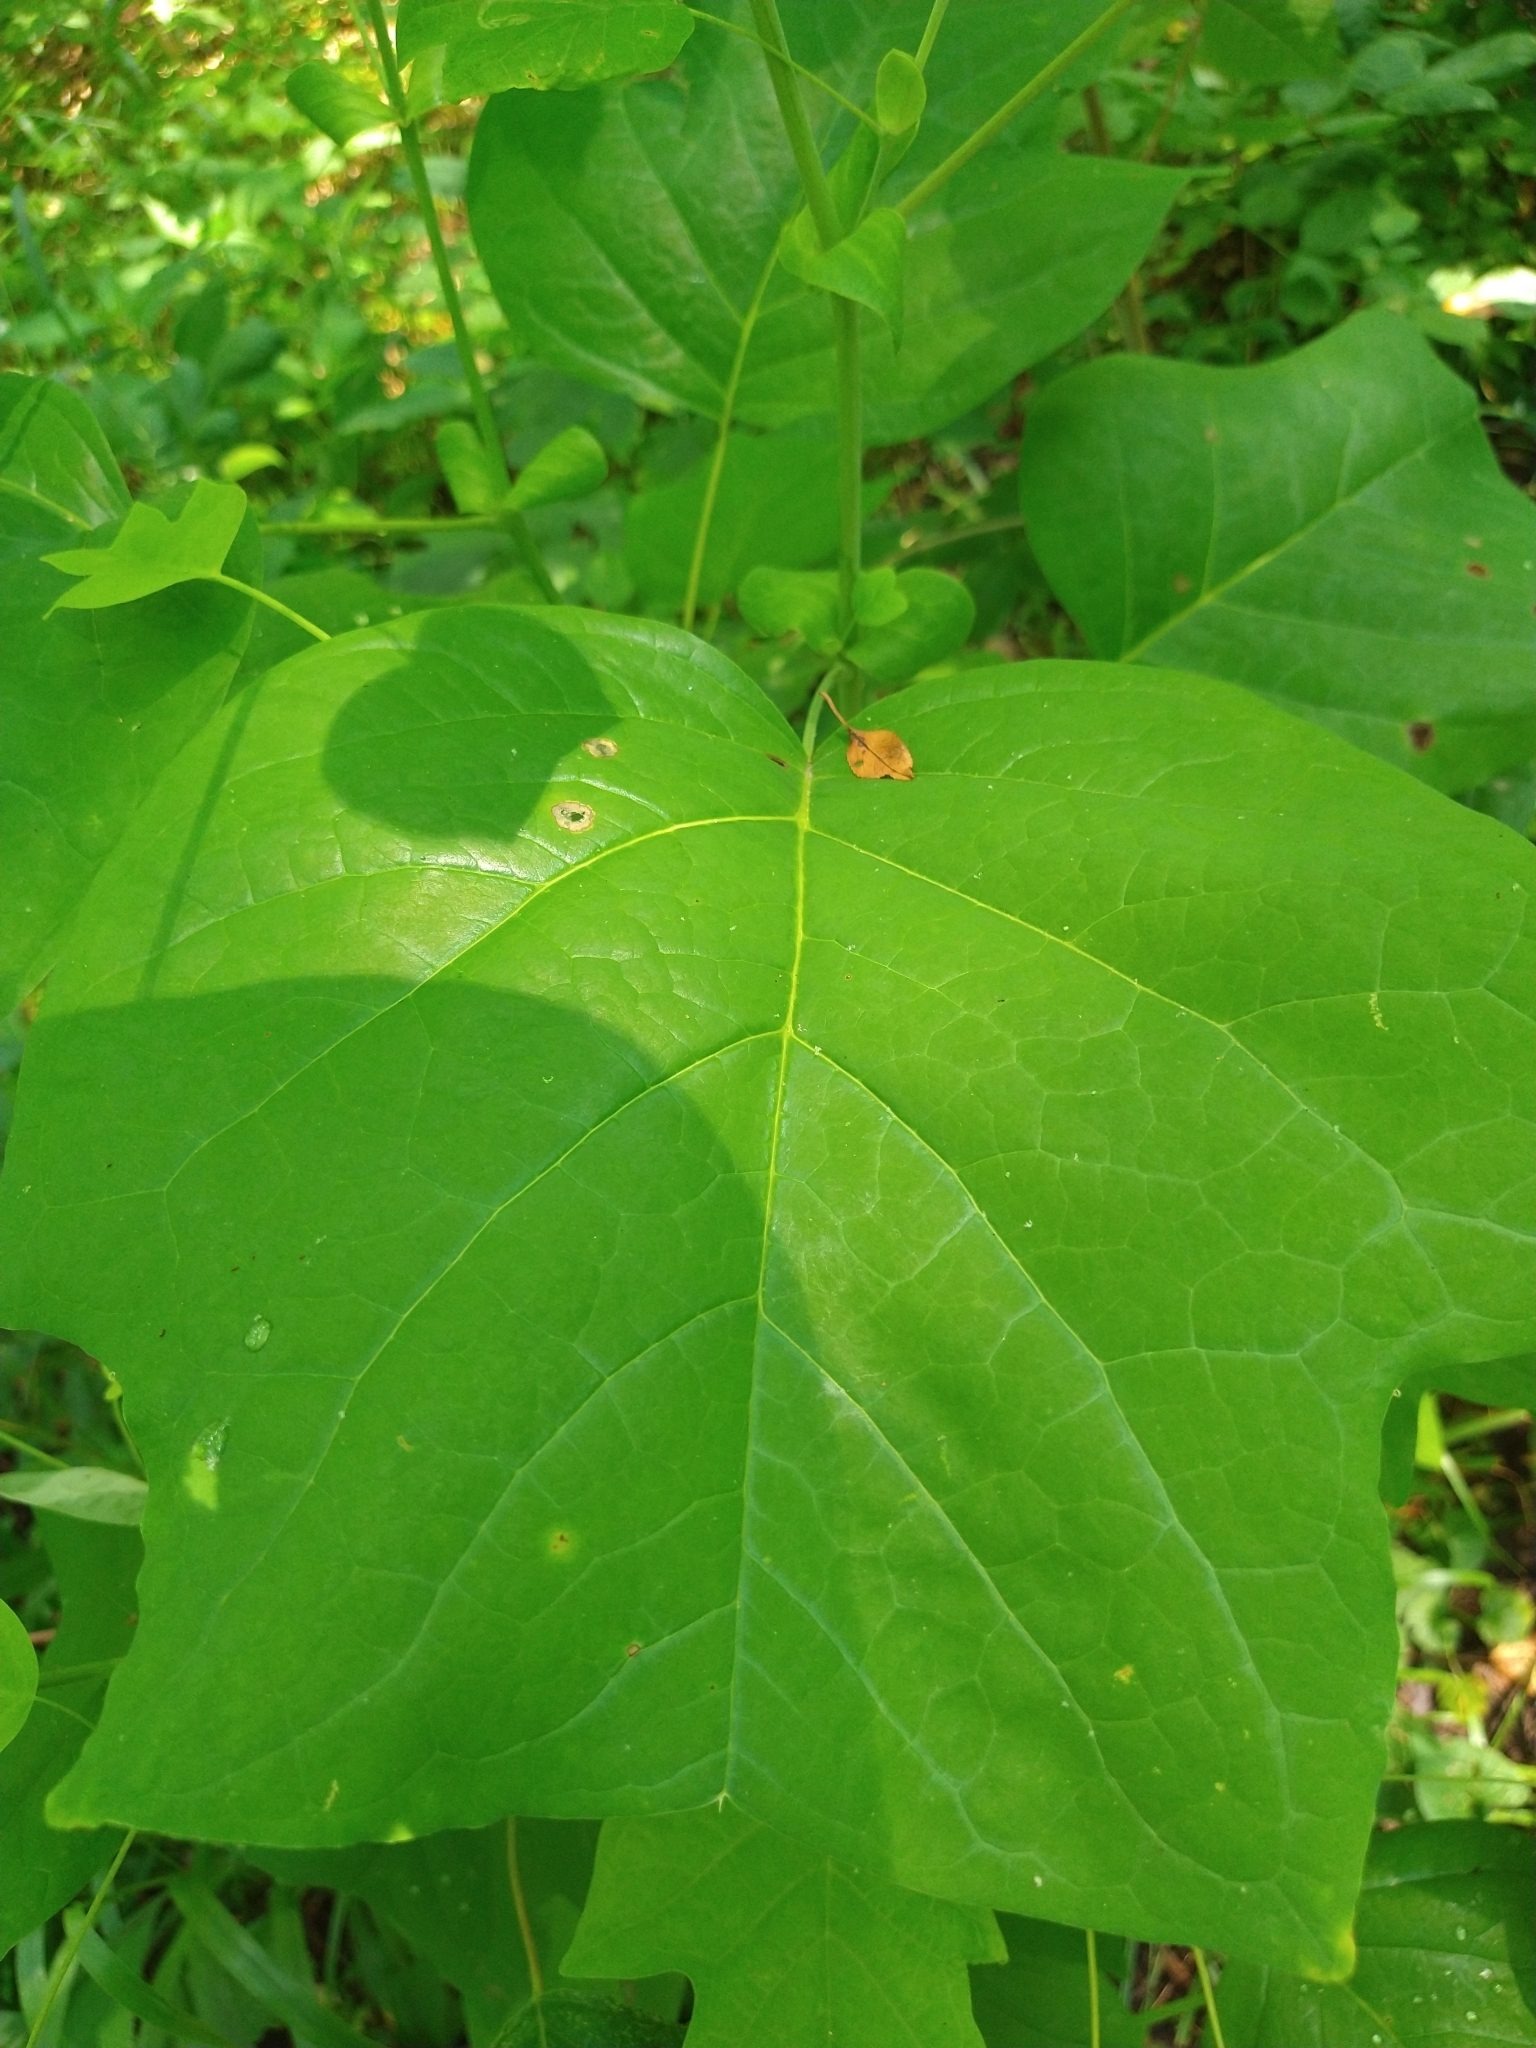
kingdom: Plantae
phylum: Tracheophyta
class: Magnoliopsida
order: Magnoliales
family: Magnoliaceae
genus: Liriodendron
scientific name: Liriodendron tulipifera
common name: Tulip tree
